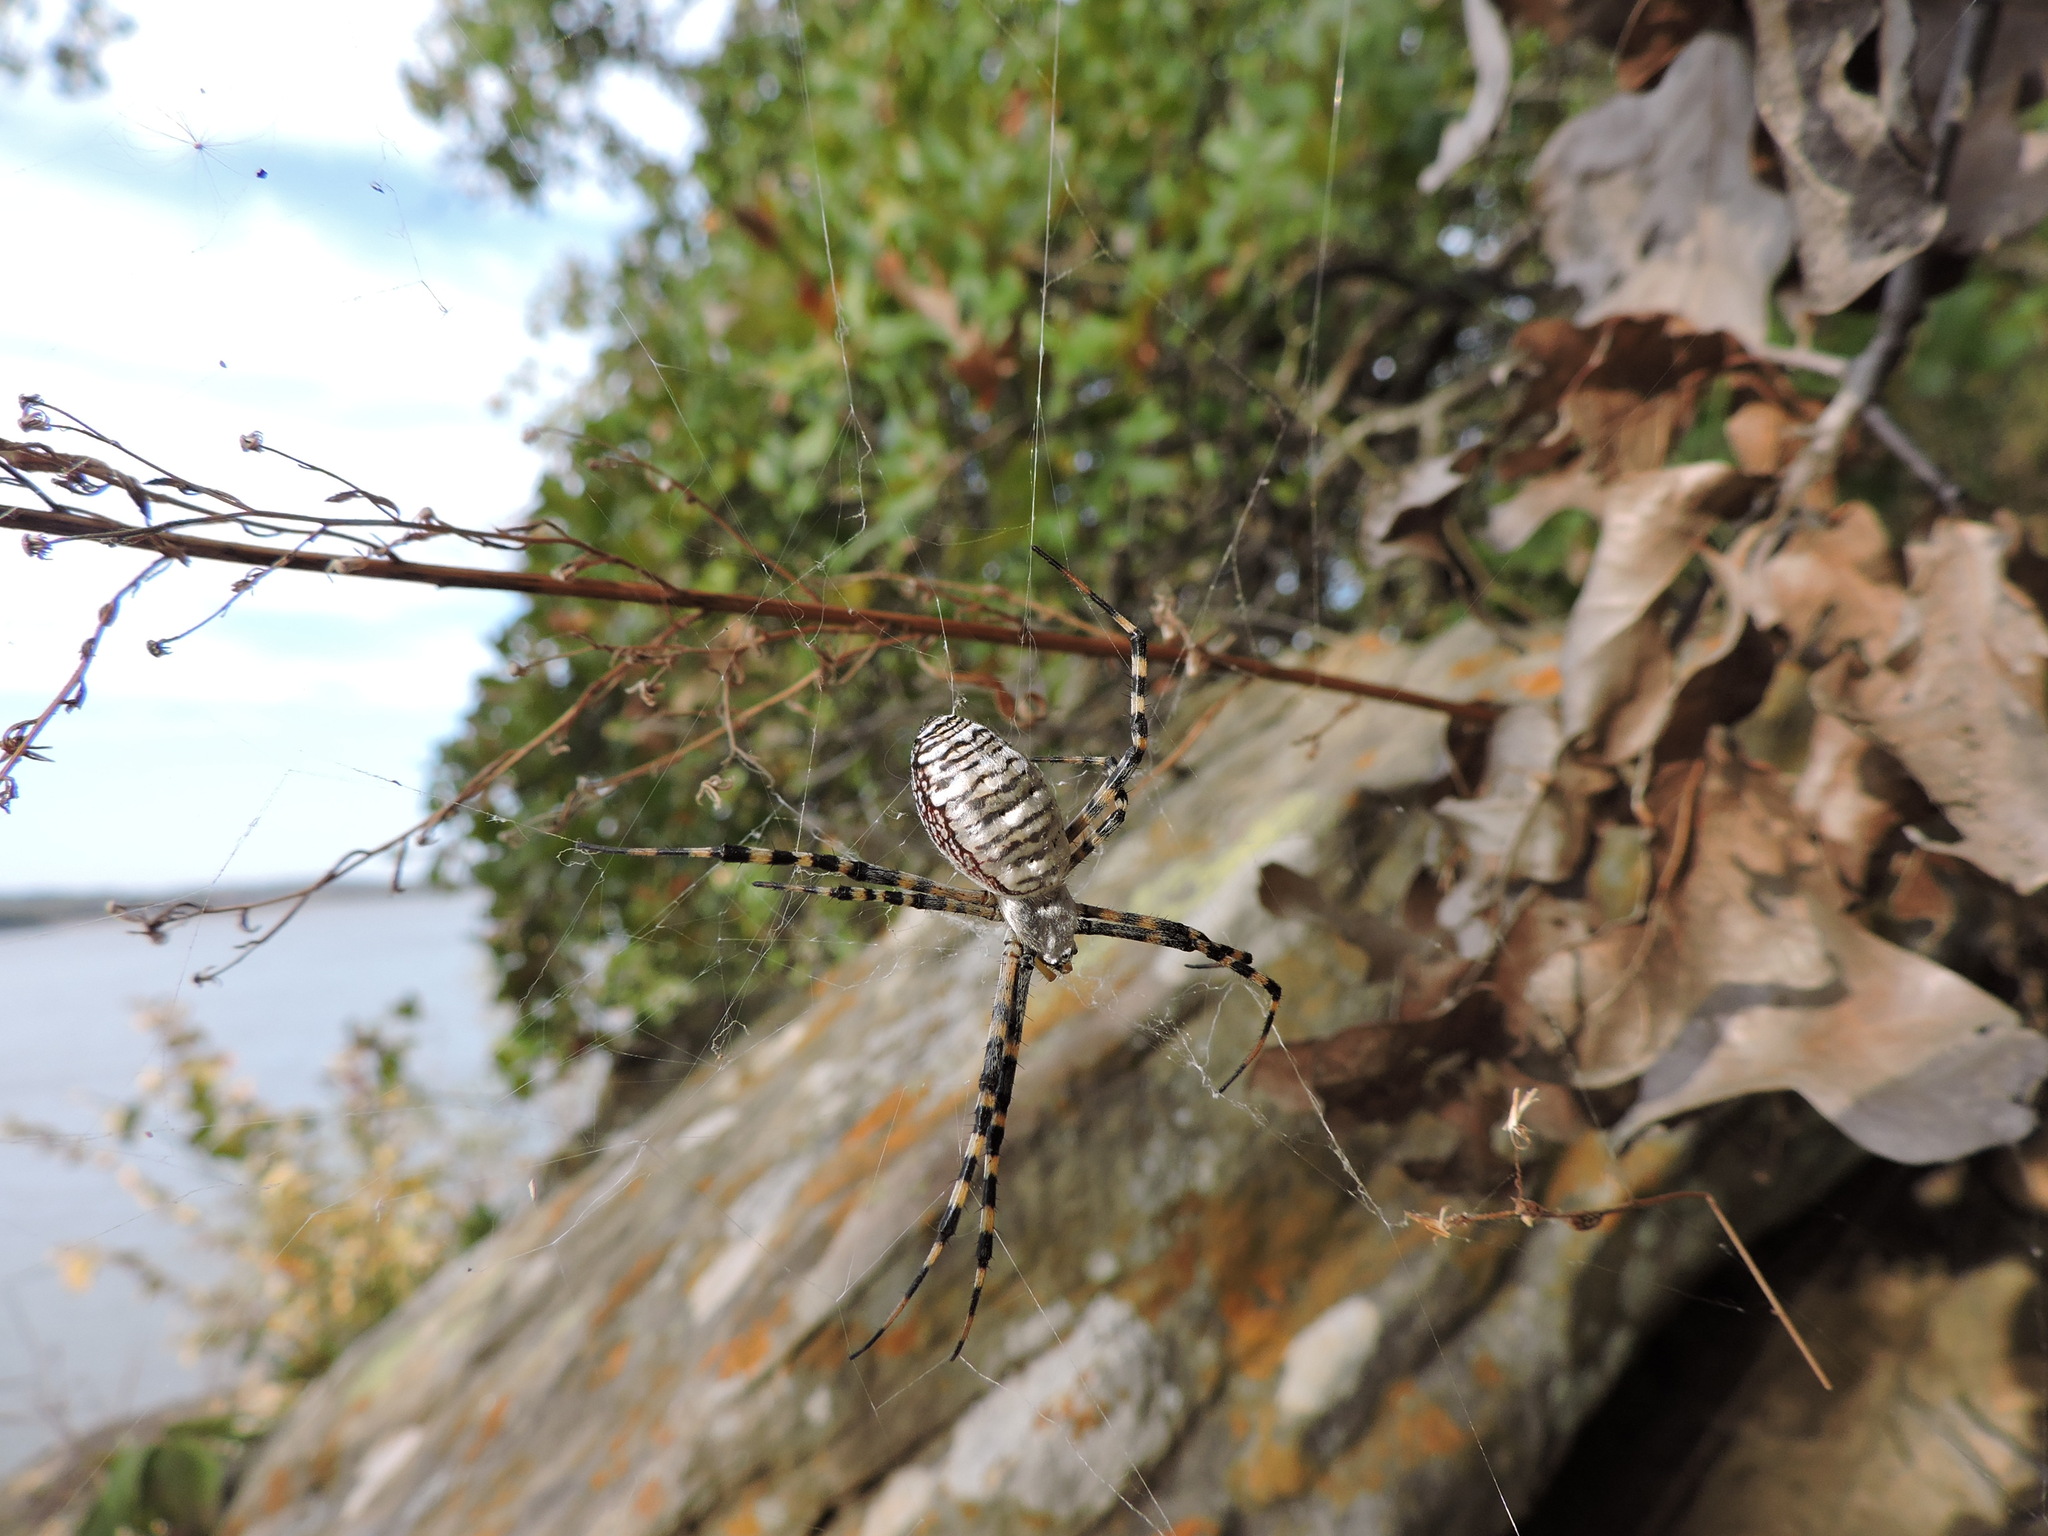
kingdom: Animalia
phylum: Arthropoda
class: Arachnida
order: Araneae
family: Araneidae
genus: Argiope
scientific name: Argiope trifasciata
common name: Banded garden spider
